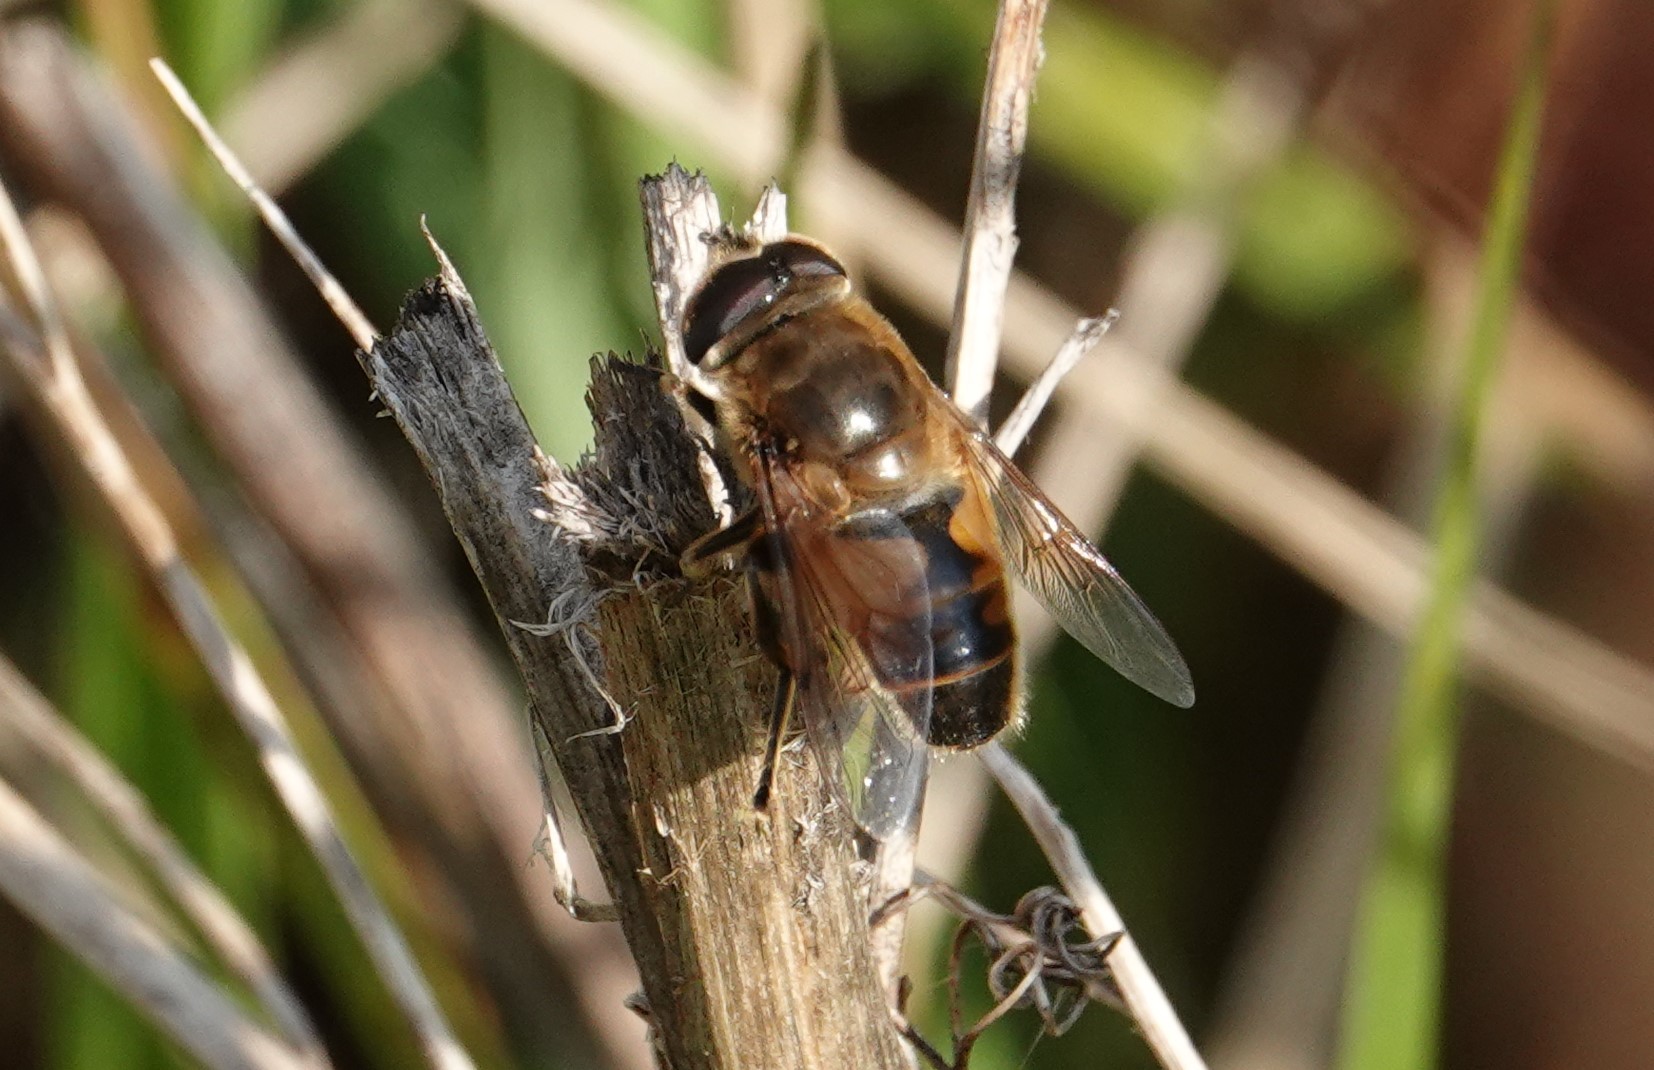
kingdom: Animalia
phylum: Arthropoda
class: Insecta
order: Diptera
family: Syrphidae
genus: Eristalis
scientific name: Eristalis tenax
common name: Drone fly
